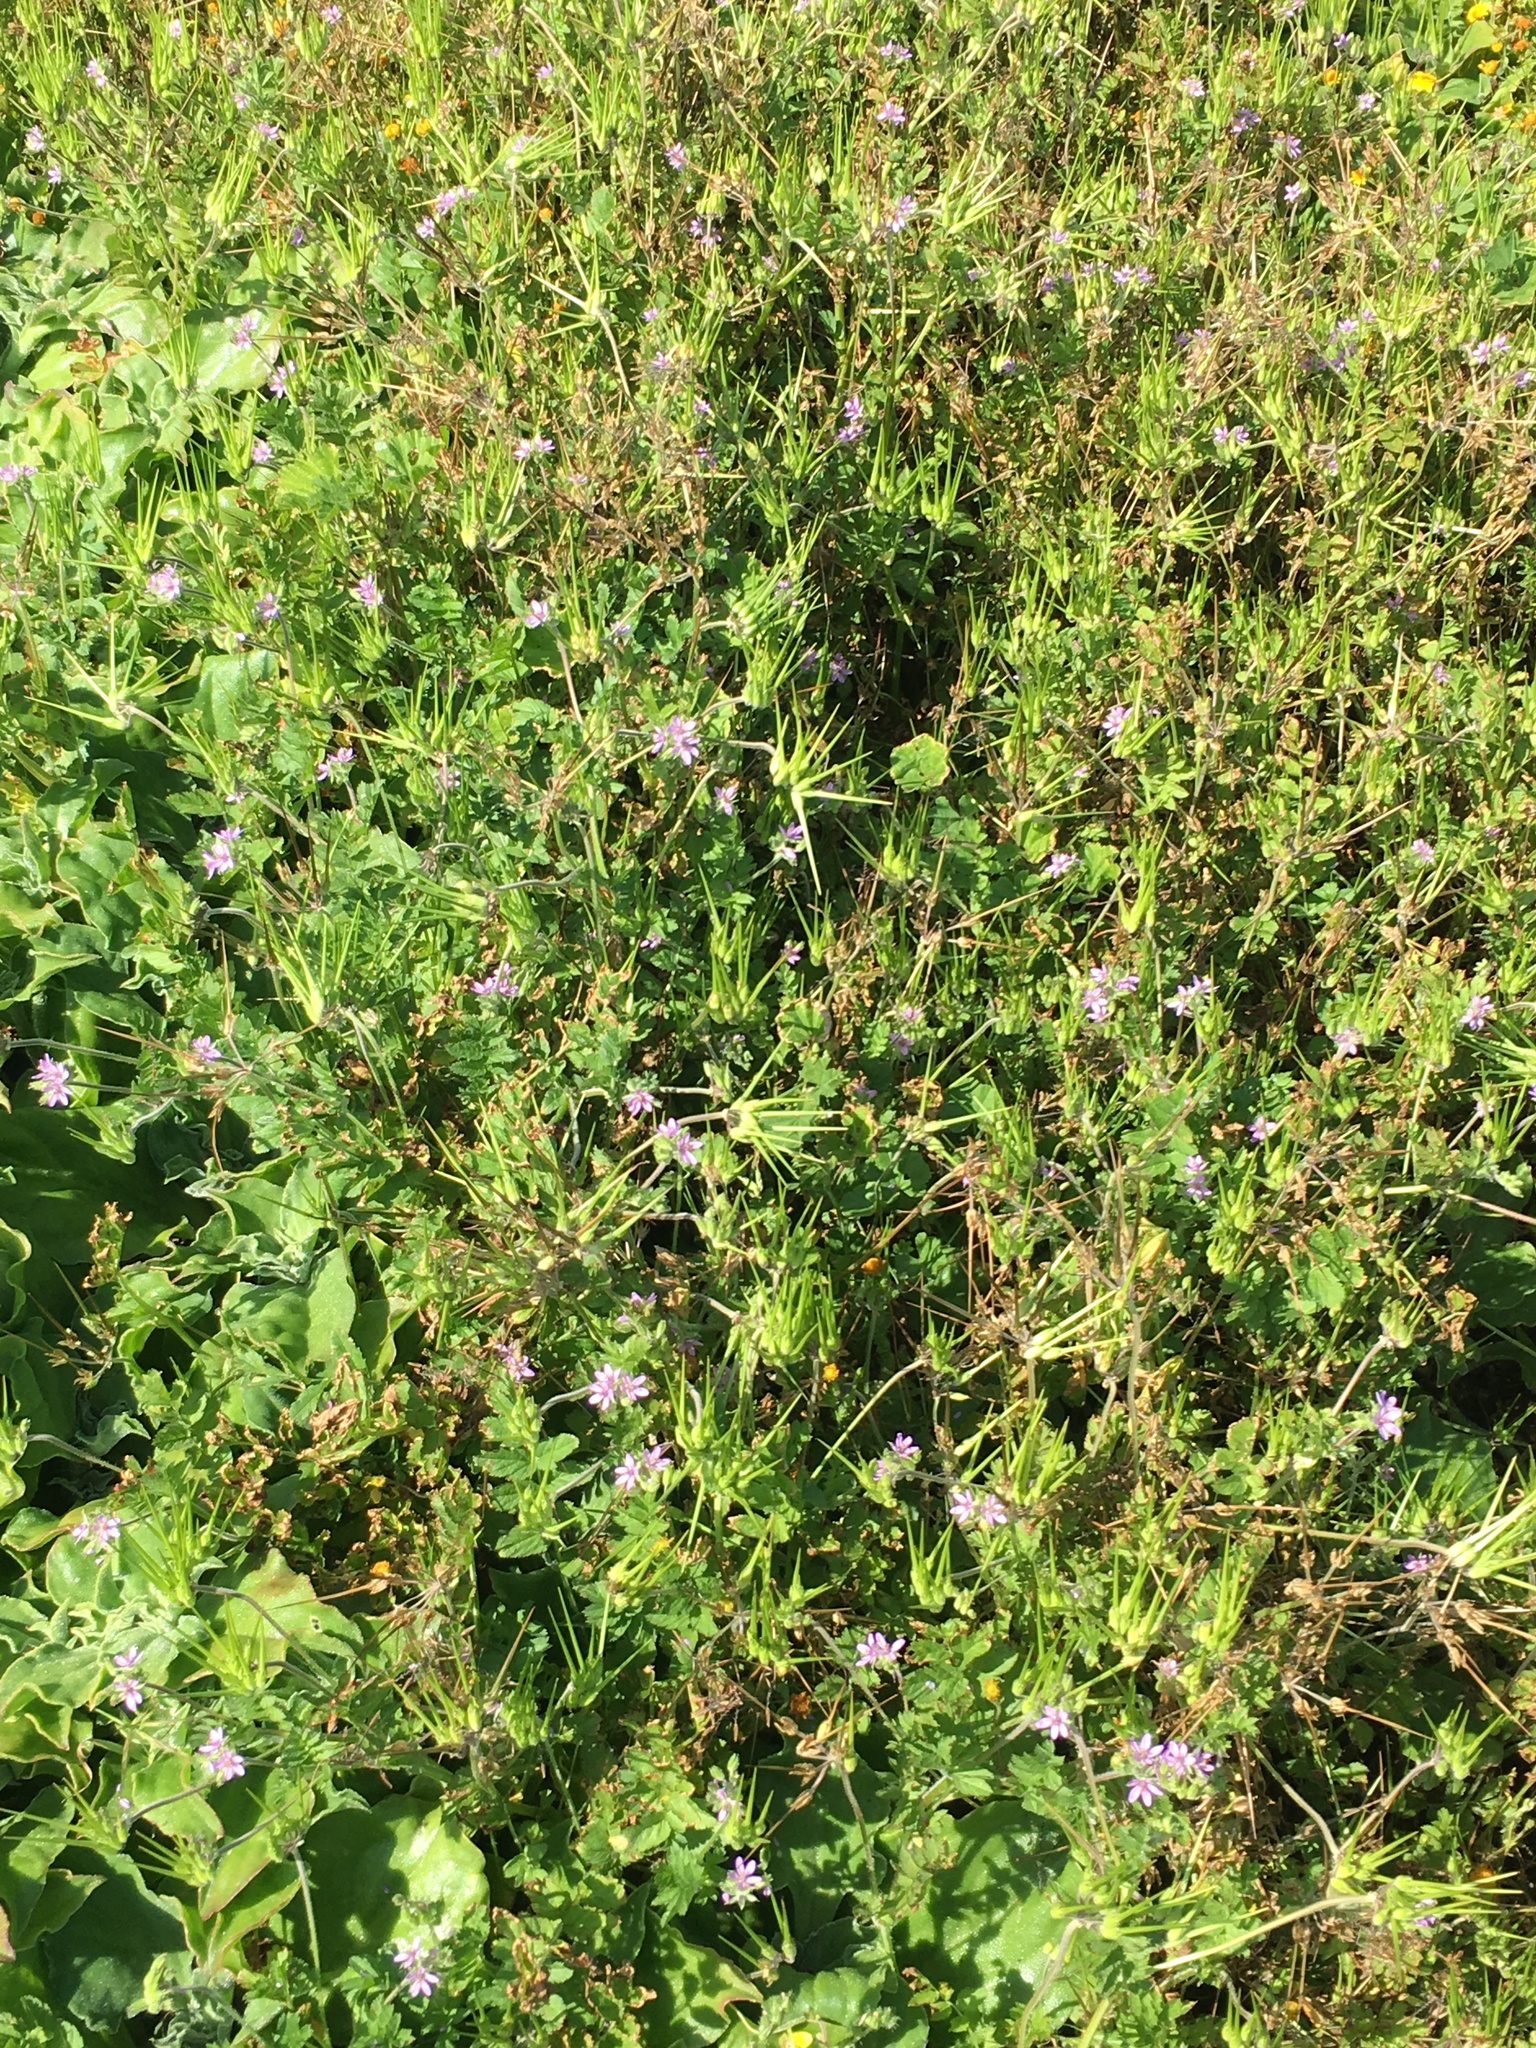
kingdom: Plantae
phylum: Tracheophyta
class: Magnoliopsida
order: Geraniales
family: Geraniaceae
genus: Erodium
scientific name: Erodium moschatum
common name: Musk stork's-bill
